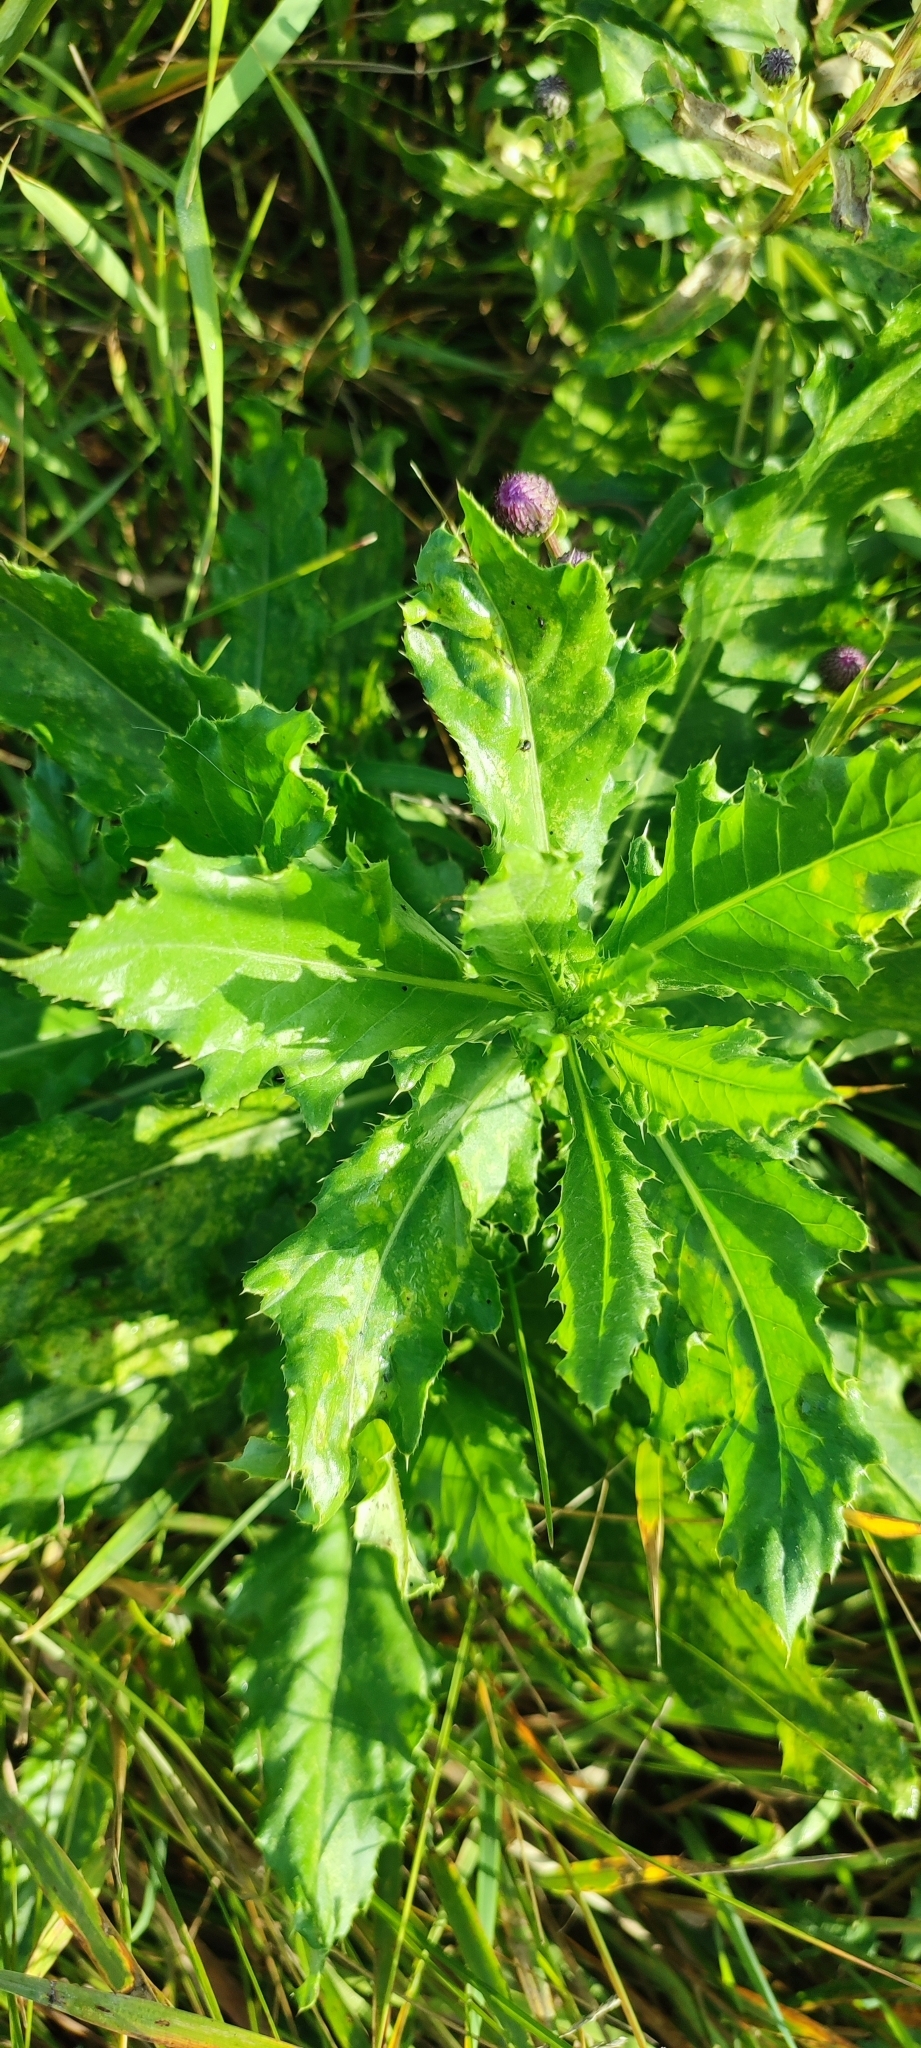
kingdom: Plantae
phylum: Tracheophyta
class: Magnoliopsida
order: Asterales
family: Asteraceae
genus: Cirsium
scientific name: Cirsium arvense
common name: Creeping thistle
